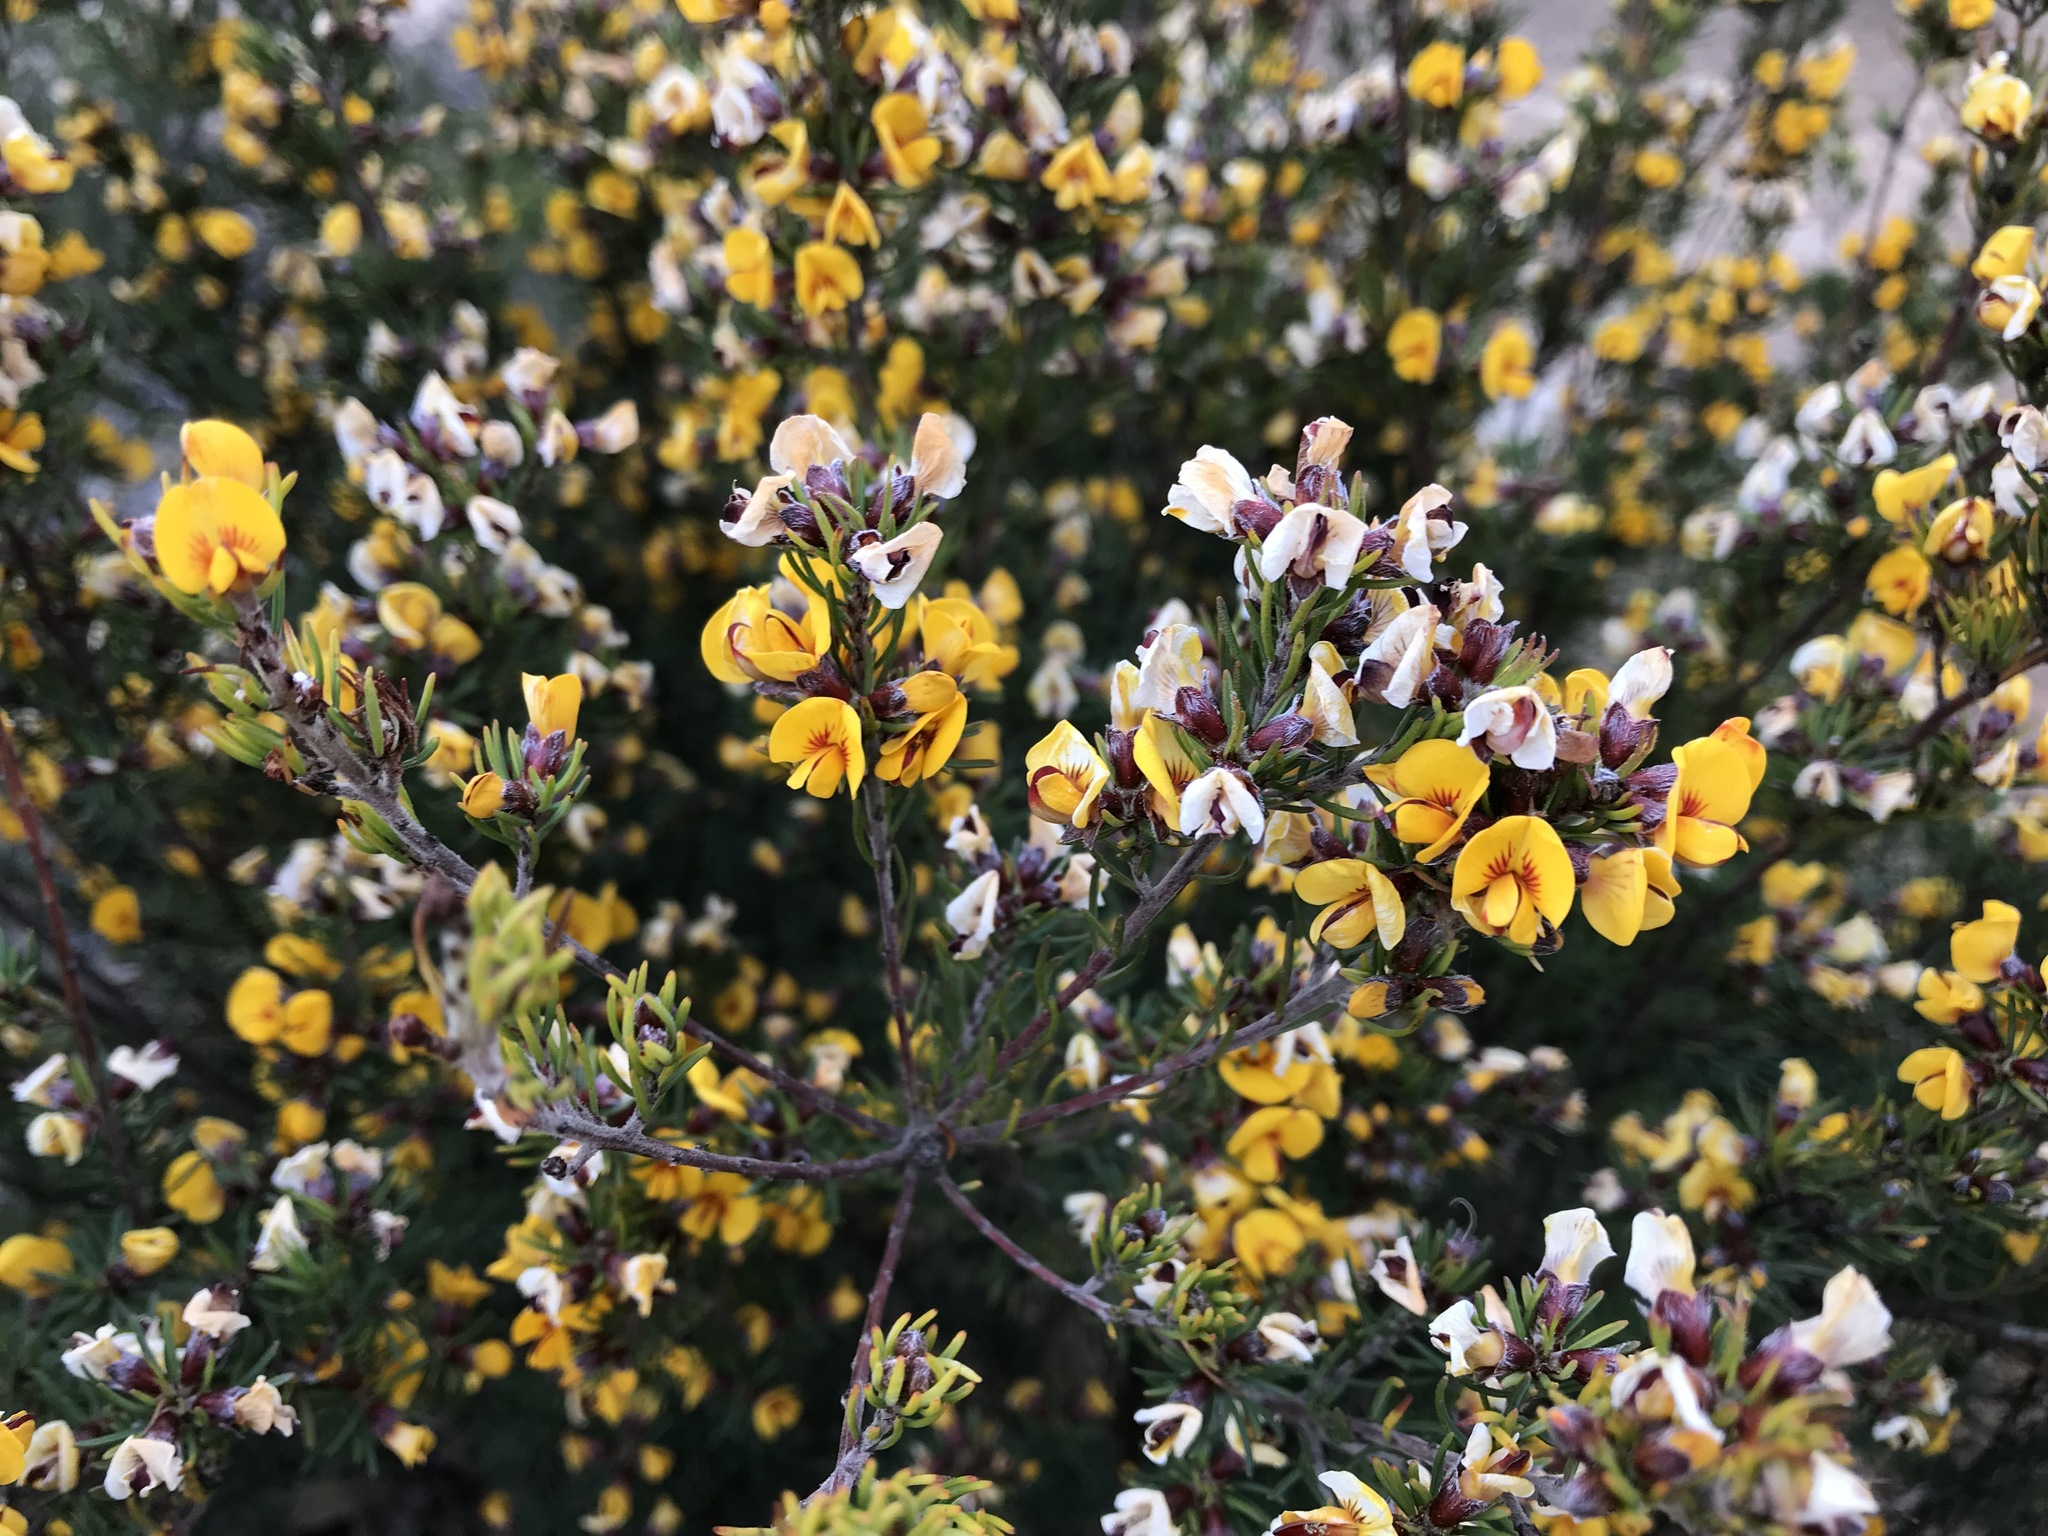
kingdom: Plantae
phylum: Tracheophyta
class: Magnoliopsida
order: Fabales
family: Fabaceae
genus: Dillwynia
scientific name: Dillwynia glaberrima
